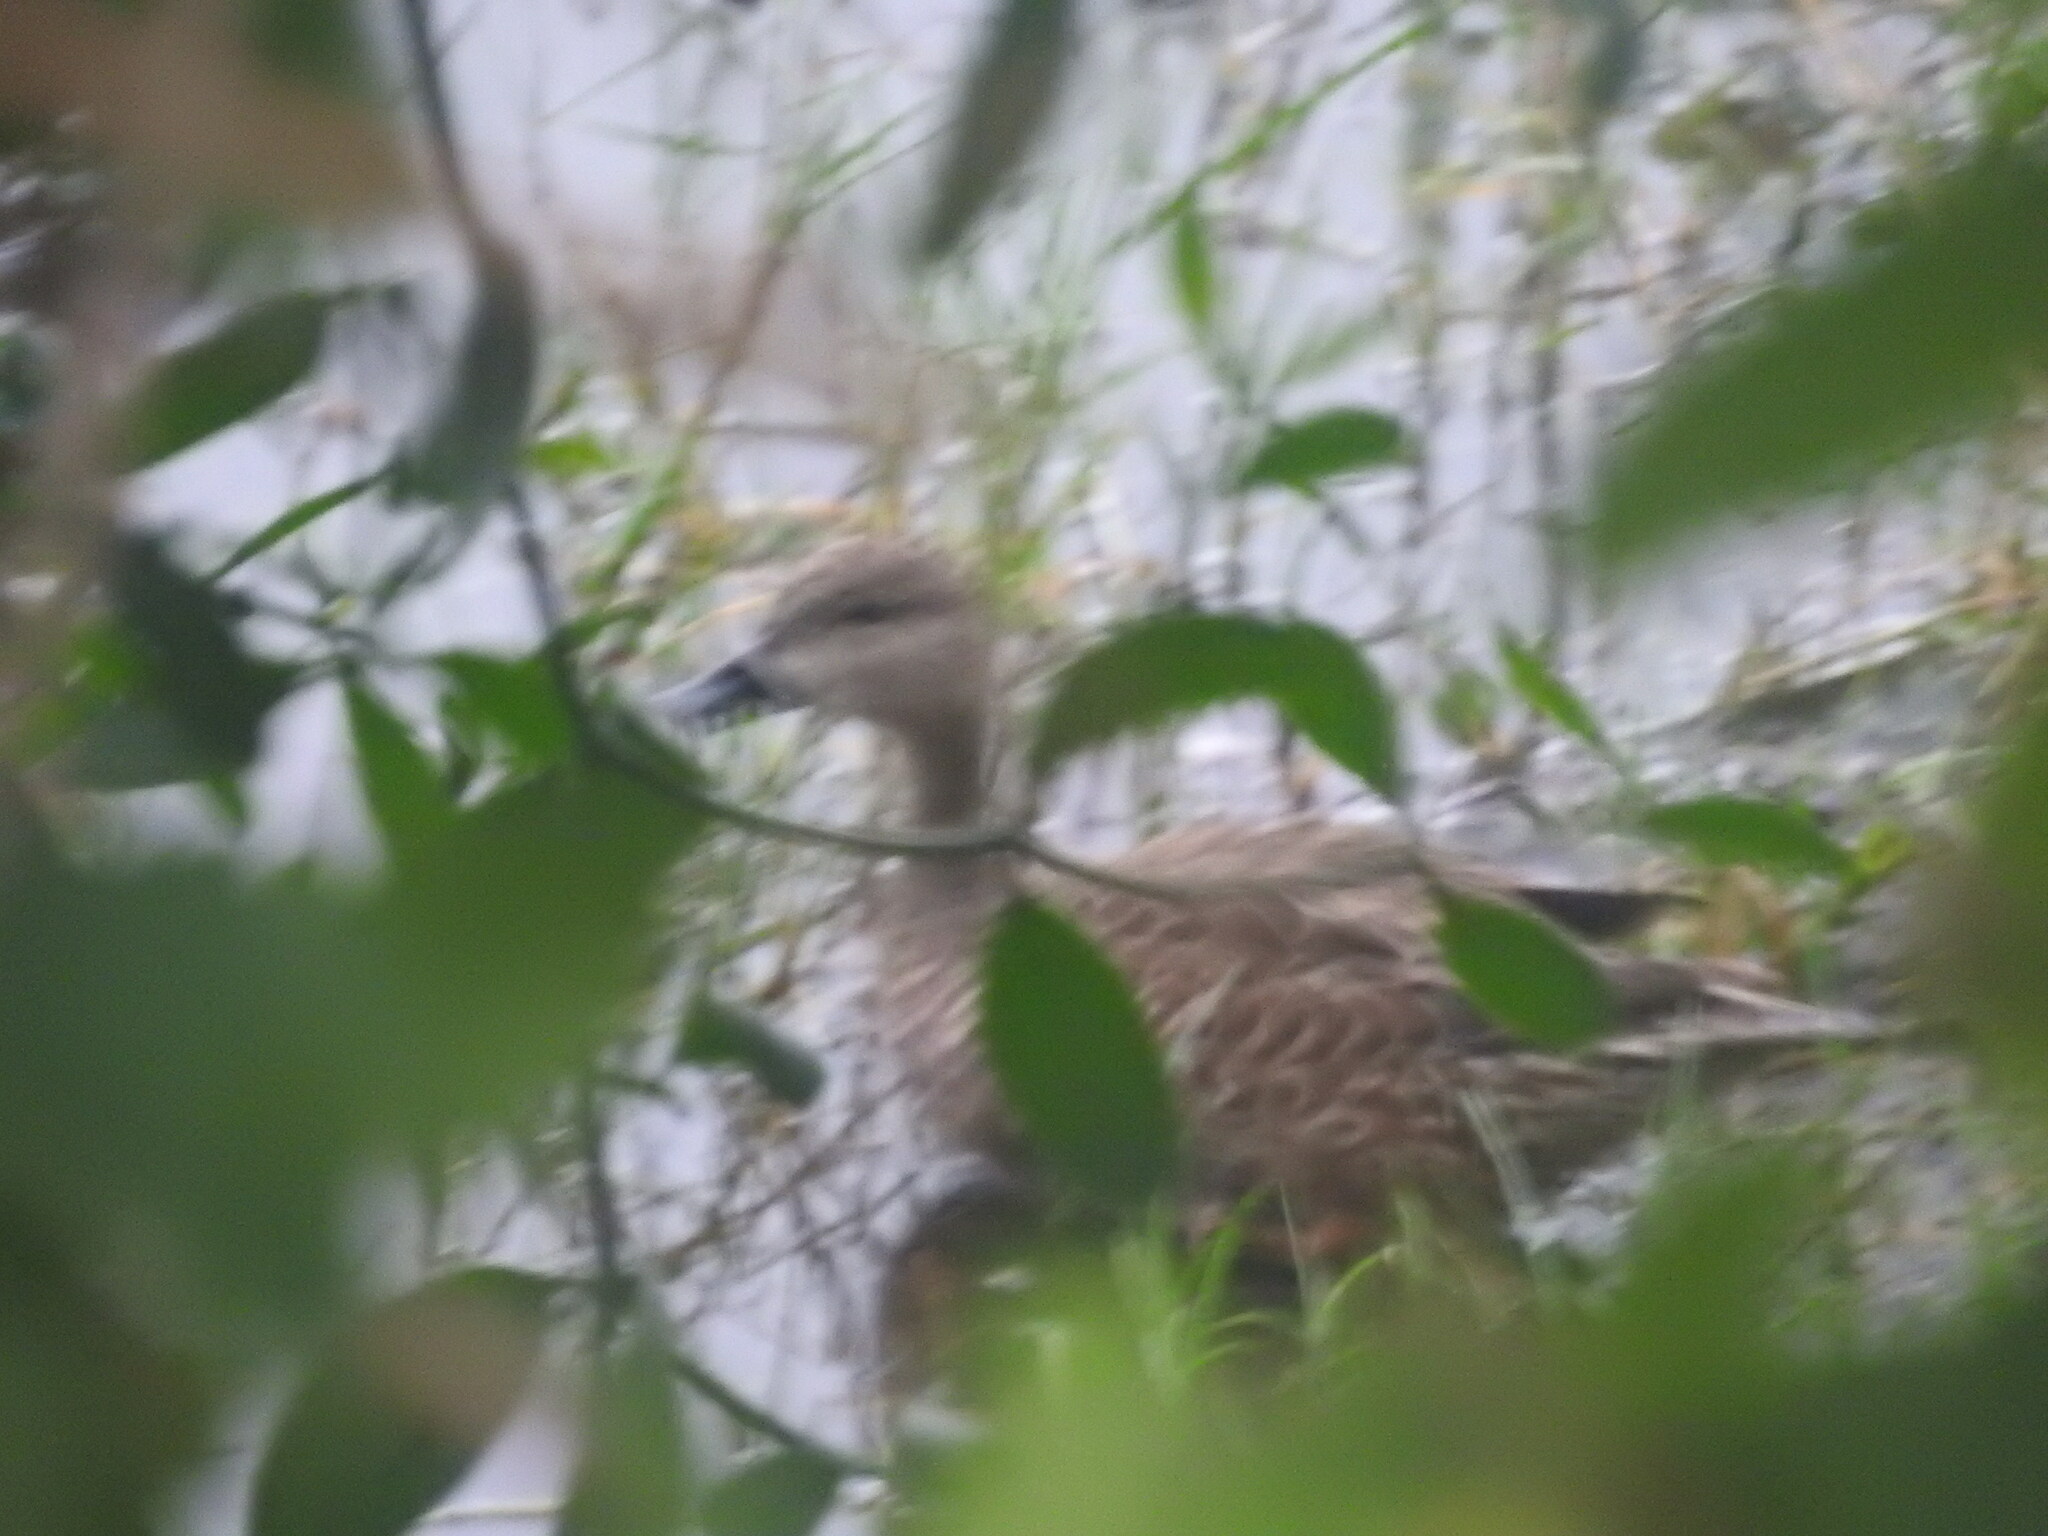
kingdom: Animalia
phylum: Chordata
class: Aves
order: Anseriformes
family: Anatidae
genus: Spatula
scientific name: Spatula discors
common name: Blue-winged teal
